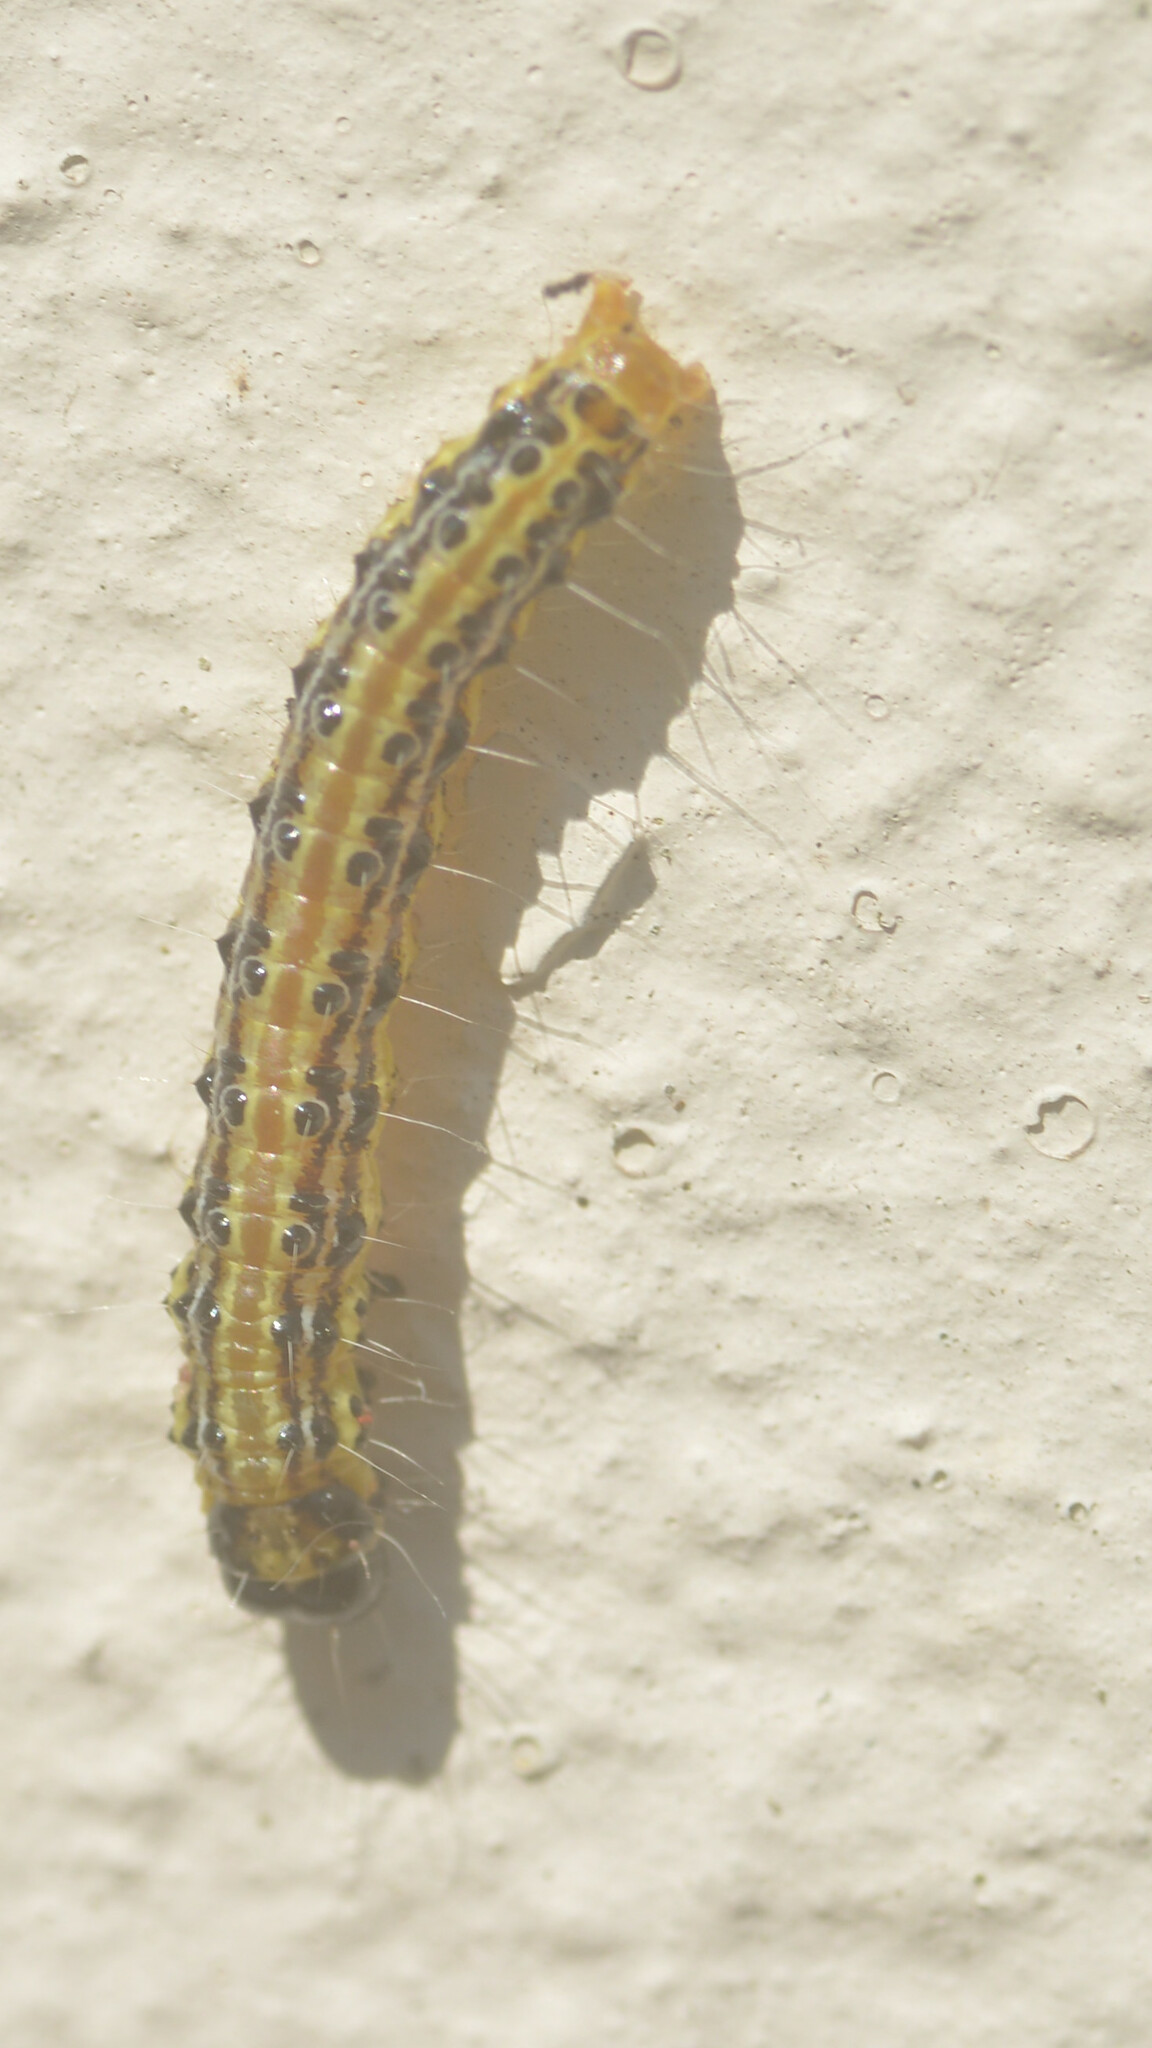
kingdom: Animalia
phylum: Arthropoda
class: Insecta
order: Lepidoptera
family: Crambidae
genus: Cydalima
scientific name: Cydalima perspectalis
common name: Box tree moth
